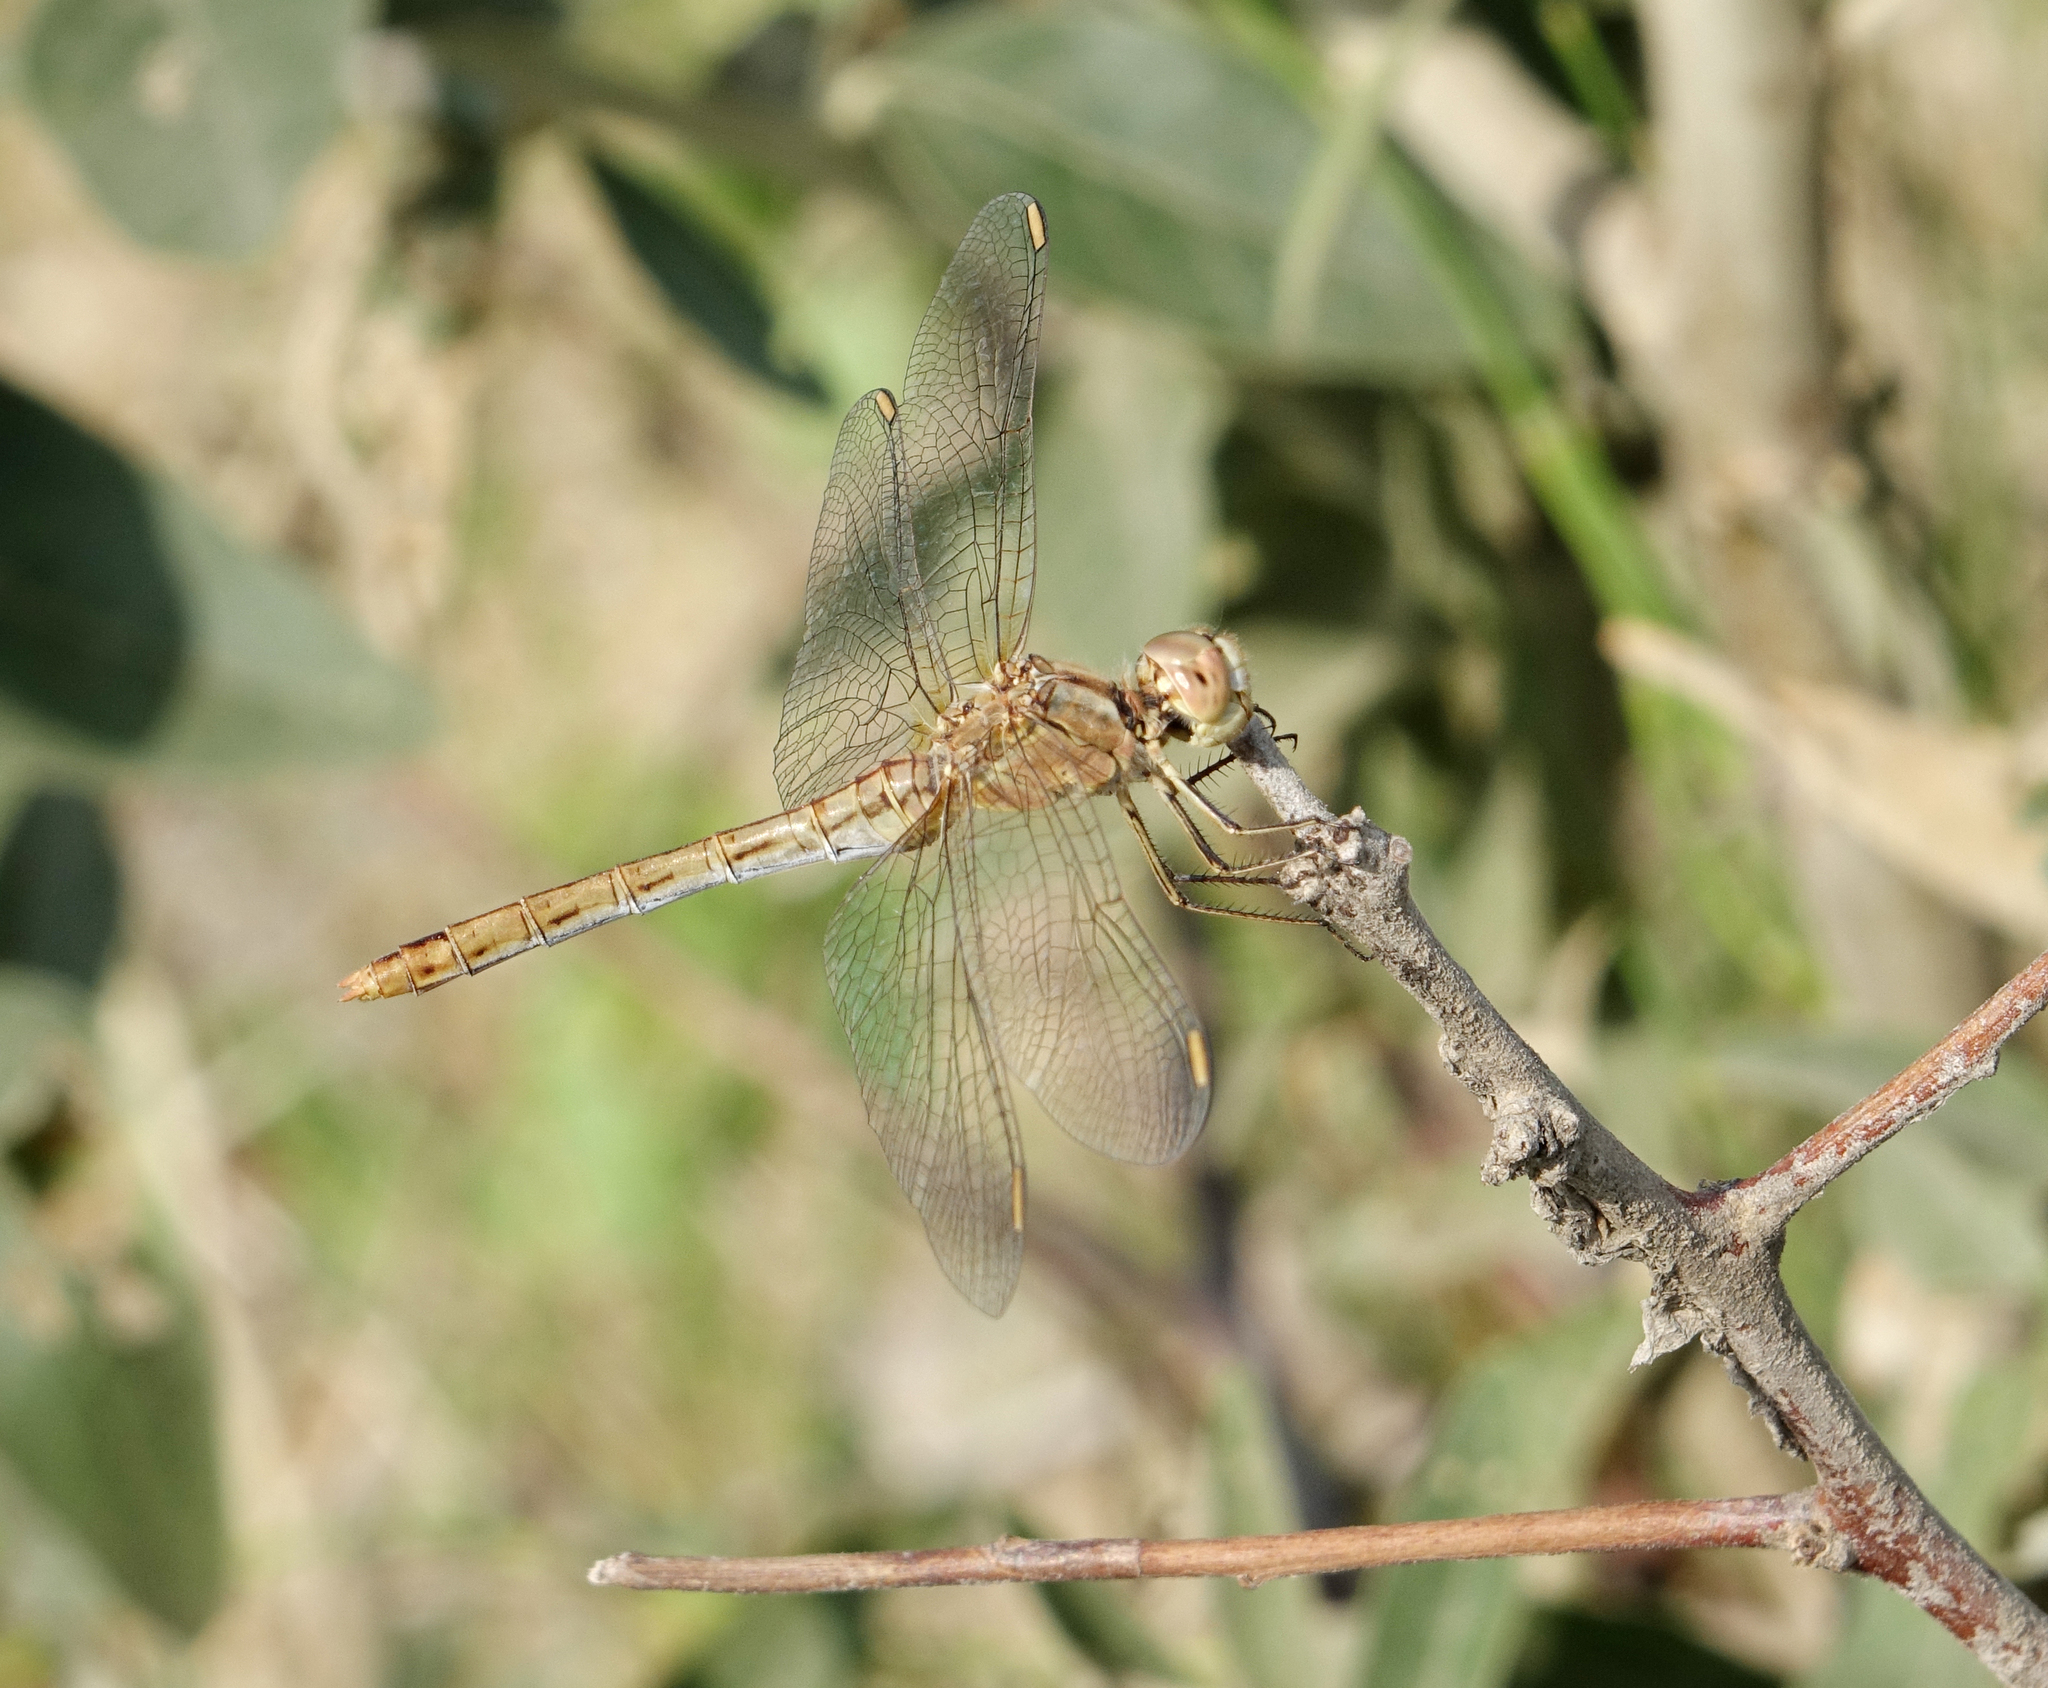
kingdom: Animalia
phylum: Arthropoda
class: Insecta
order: Odonata
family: Libellulidae
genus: Sympetrum
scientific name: Sympetrum meridionale
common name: Southern darter
